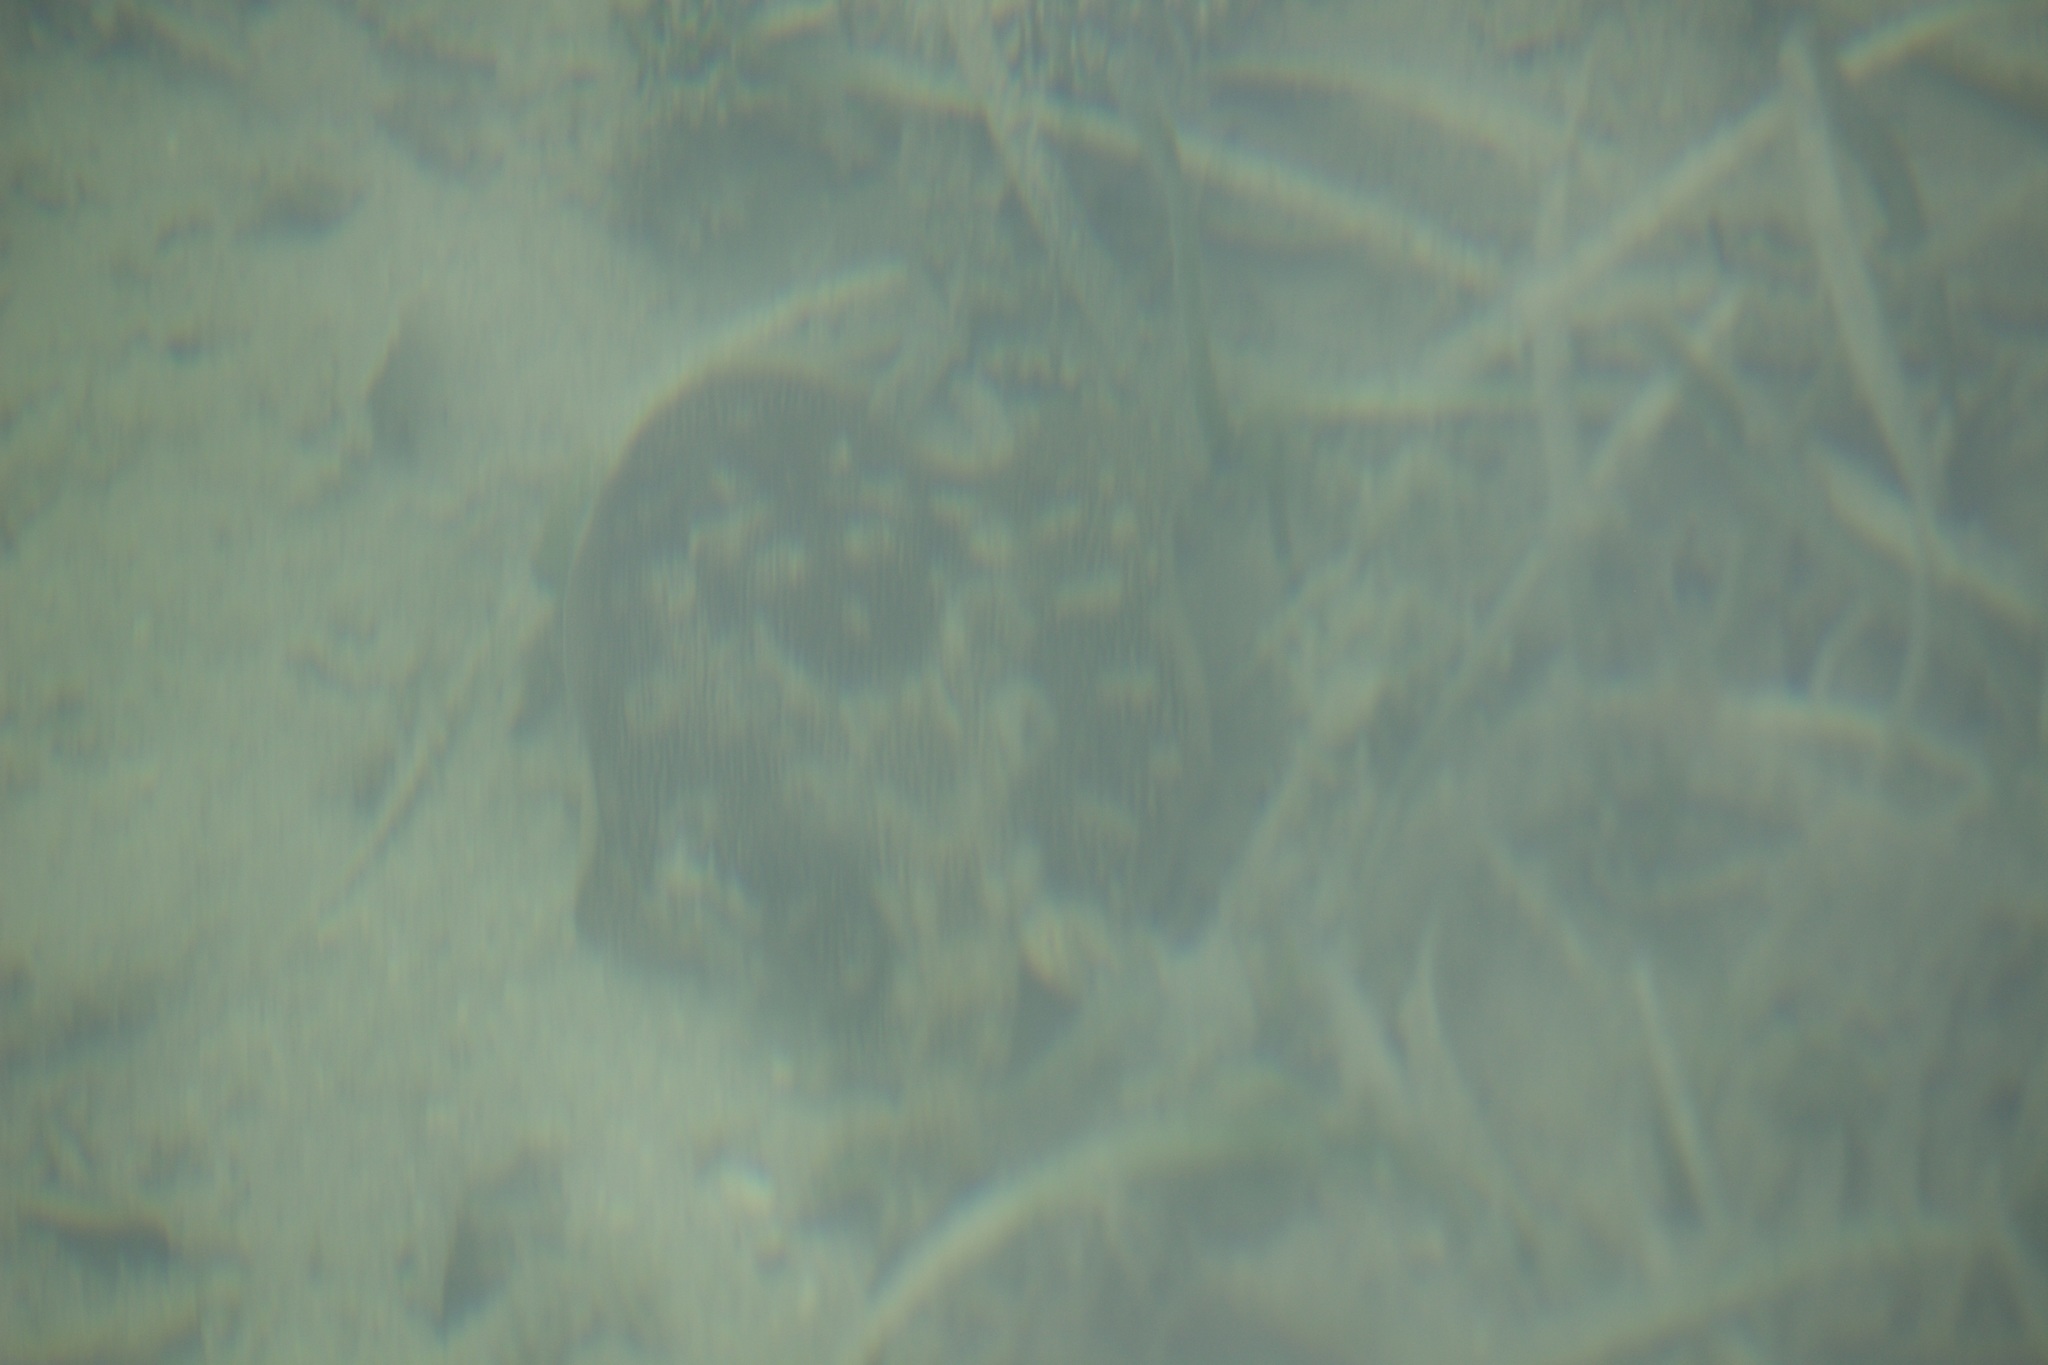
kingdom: Animalia
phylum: Chordata
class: Elasmobranchii
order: Myliobatiformes
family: Urotrygonidae
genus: Urobatis
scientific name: Urobatis jamaicensis
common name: Yellow stingray
